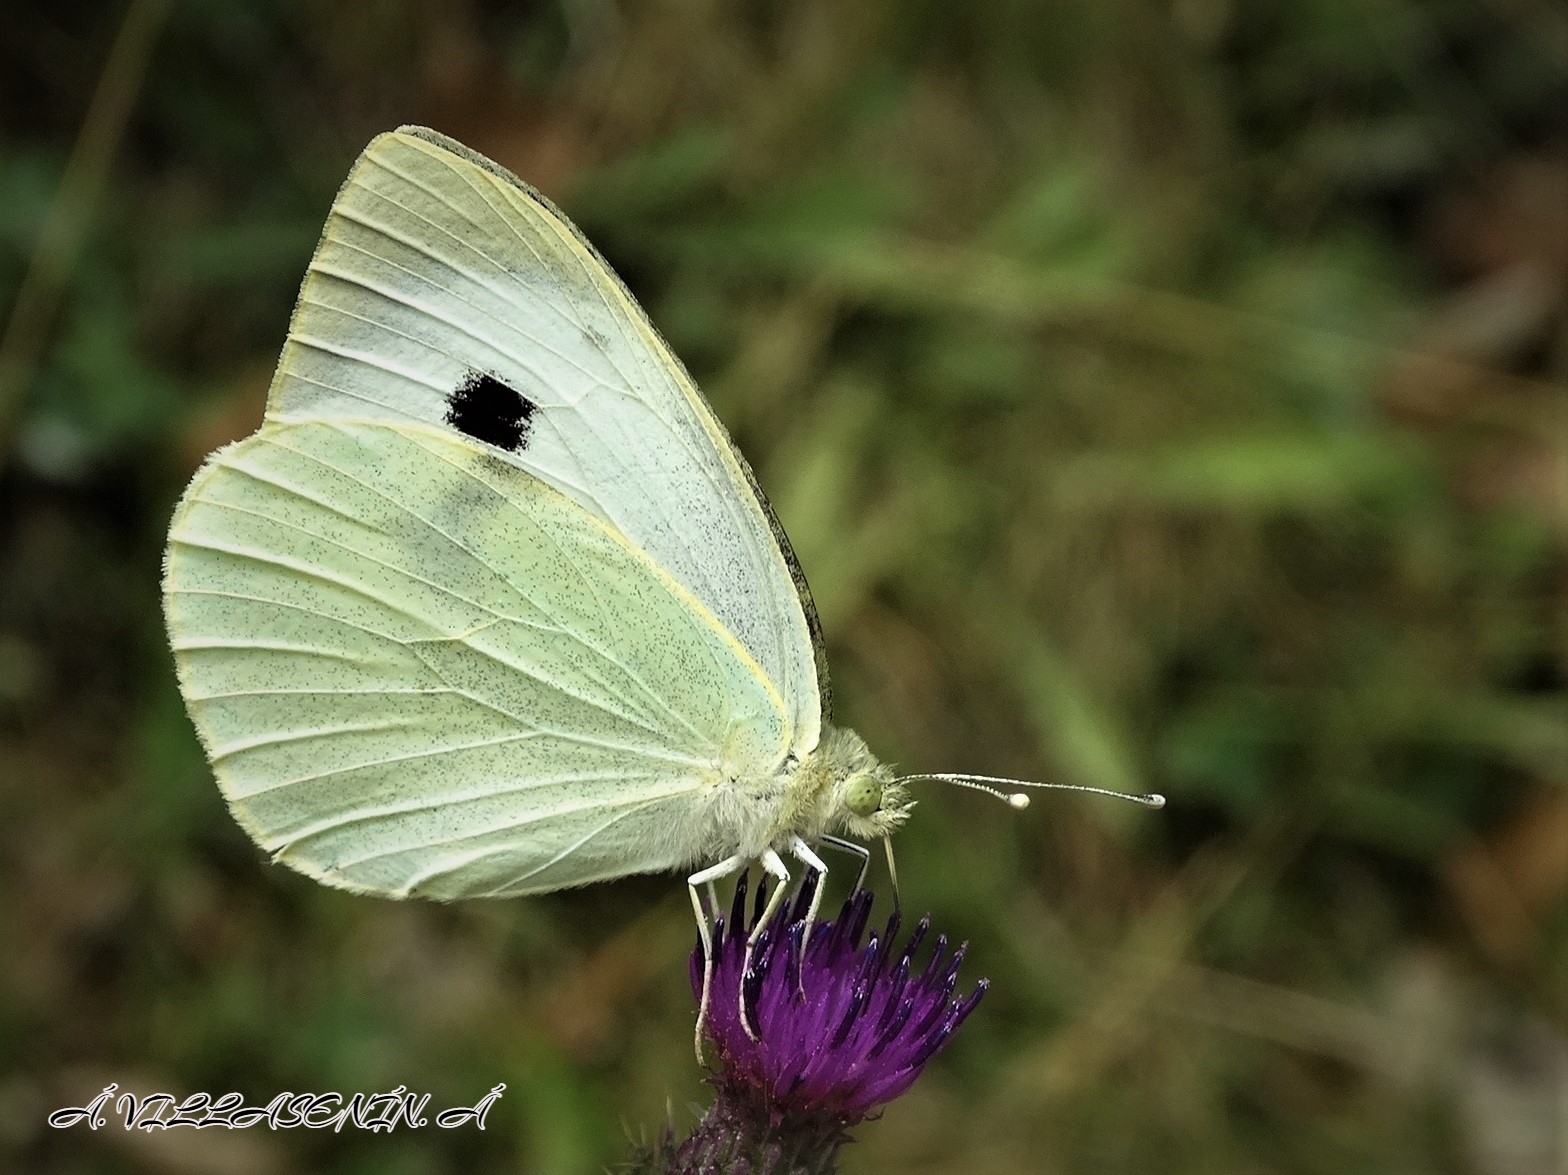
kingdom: Animalia
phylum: Arthropoda
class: Insecta
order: Lepidoptera
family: Pieridae
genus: Pieris
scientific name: Pieris brassicae
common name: Large white
